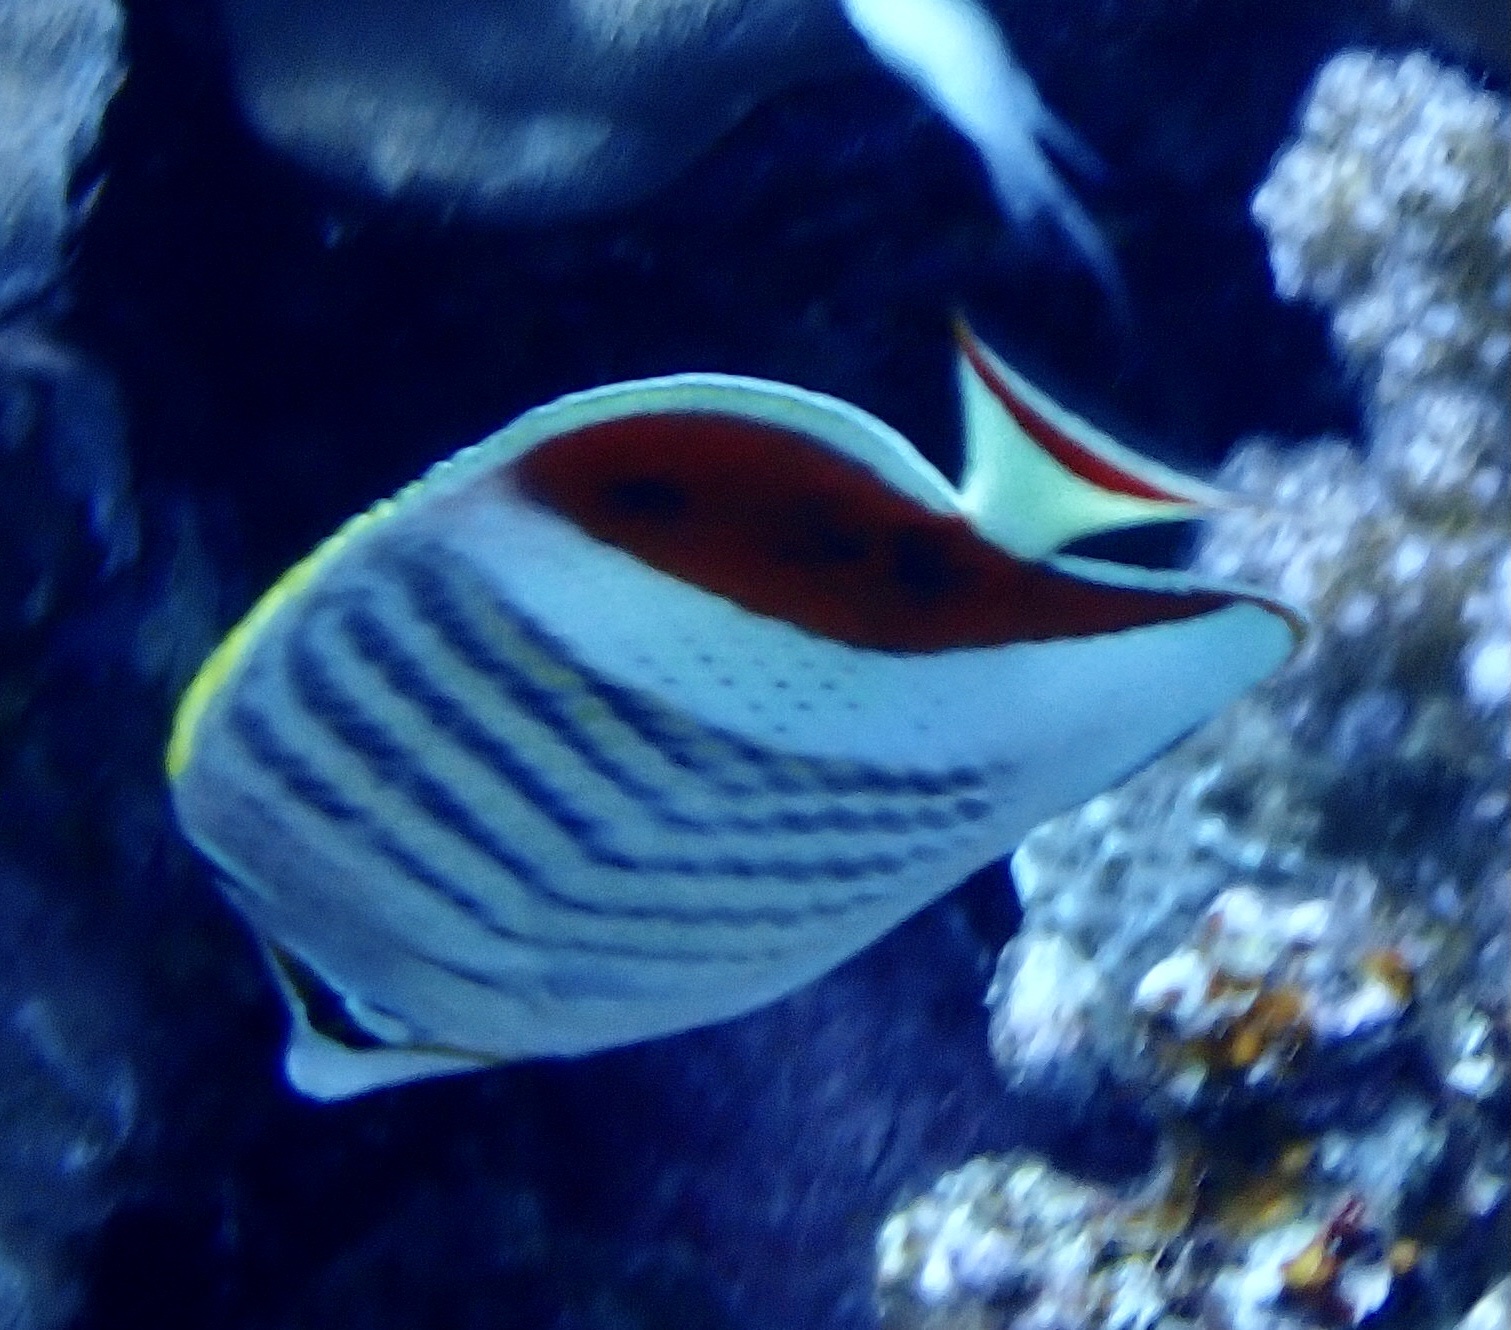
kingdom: Animalia
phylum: Chordata
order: Perciformes
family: Chaetodontidae
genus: Chaetodon
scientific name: Chaetodon paucifasciatus
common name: Crown butterflyfish
